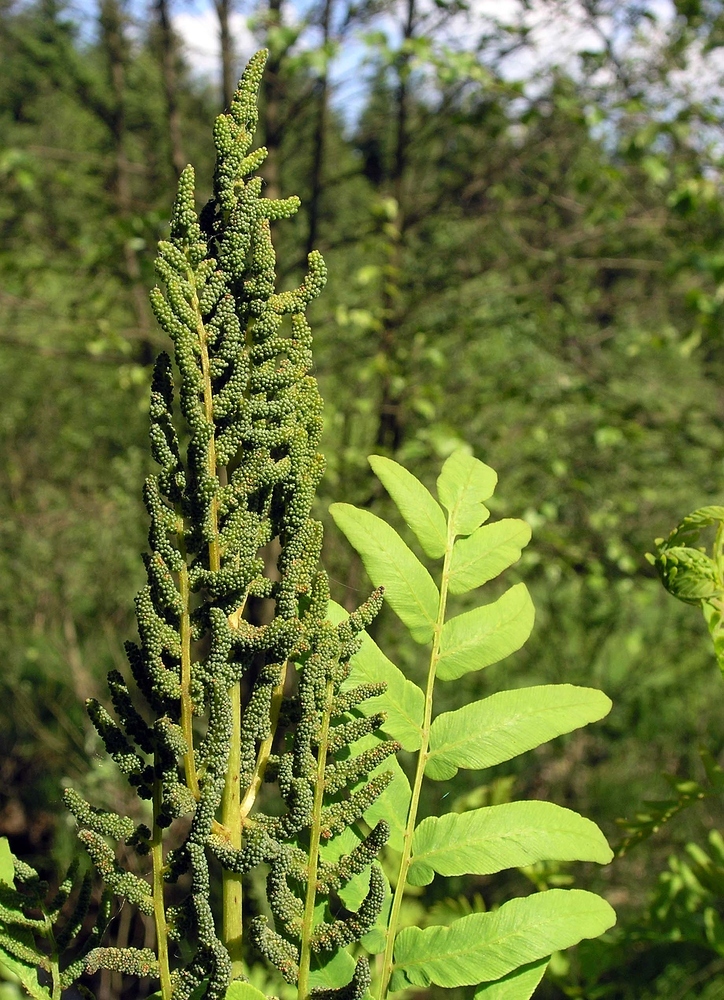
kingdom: Plantae
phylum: Tracheophyta
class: Polypodiopsida
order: Osmundales
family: Osmundaceae
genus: Osmunda
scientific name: Osmunda regalis
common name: Royal fern
